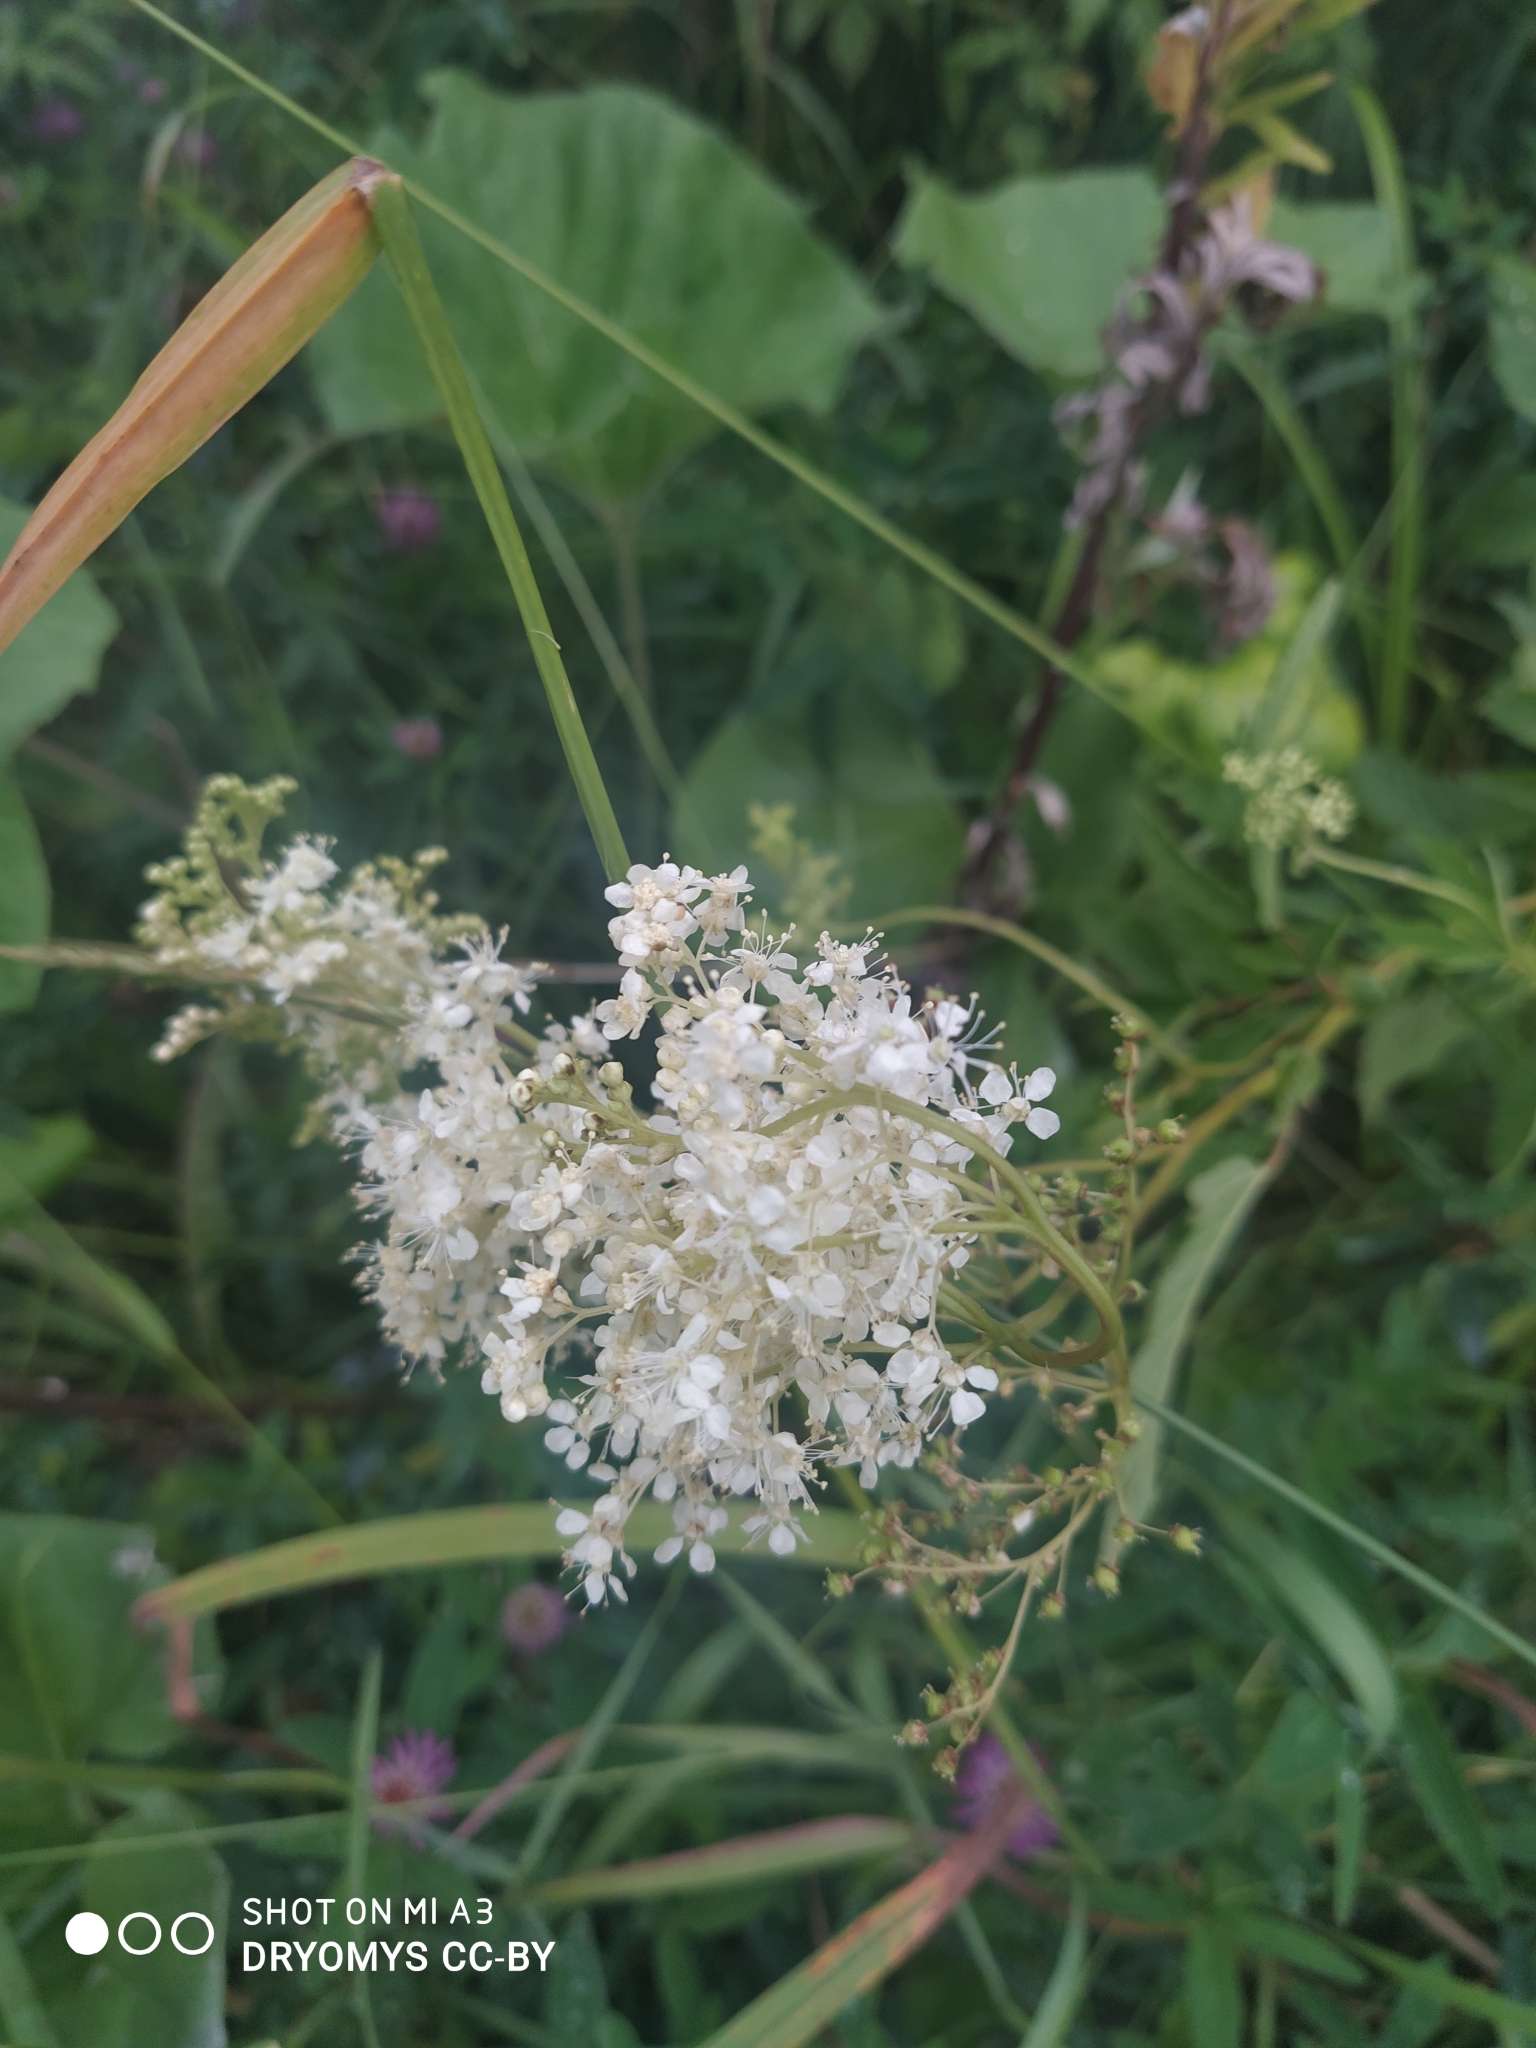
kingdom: Plantae
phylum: Tracheophyta
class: Magnoliopsida
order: Rosales
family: Rosaceae
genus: Filipendula
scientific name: Filipendula ulmaria
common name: Meadowsweet
